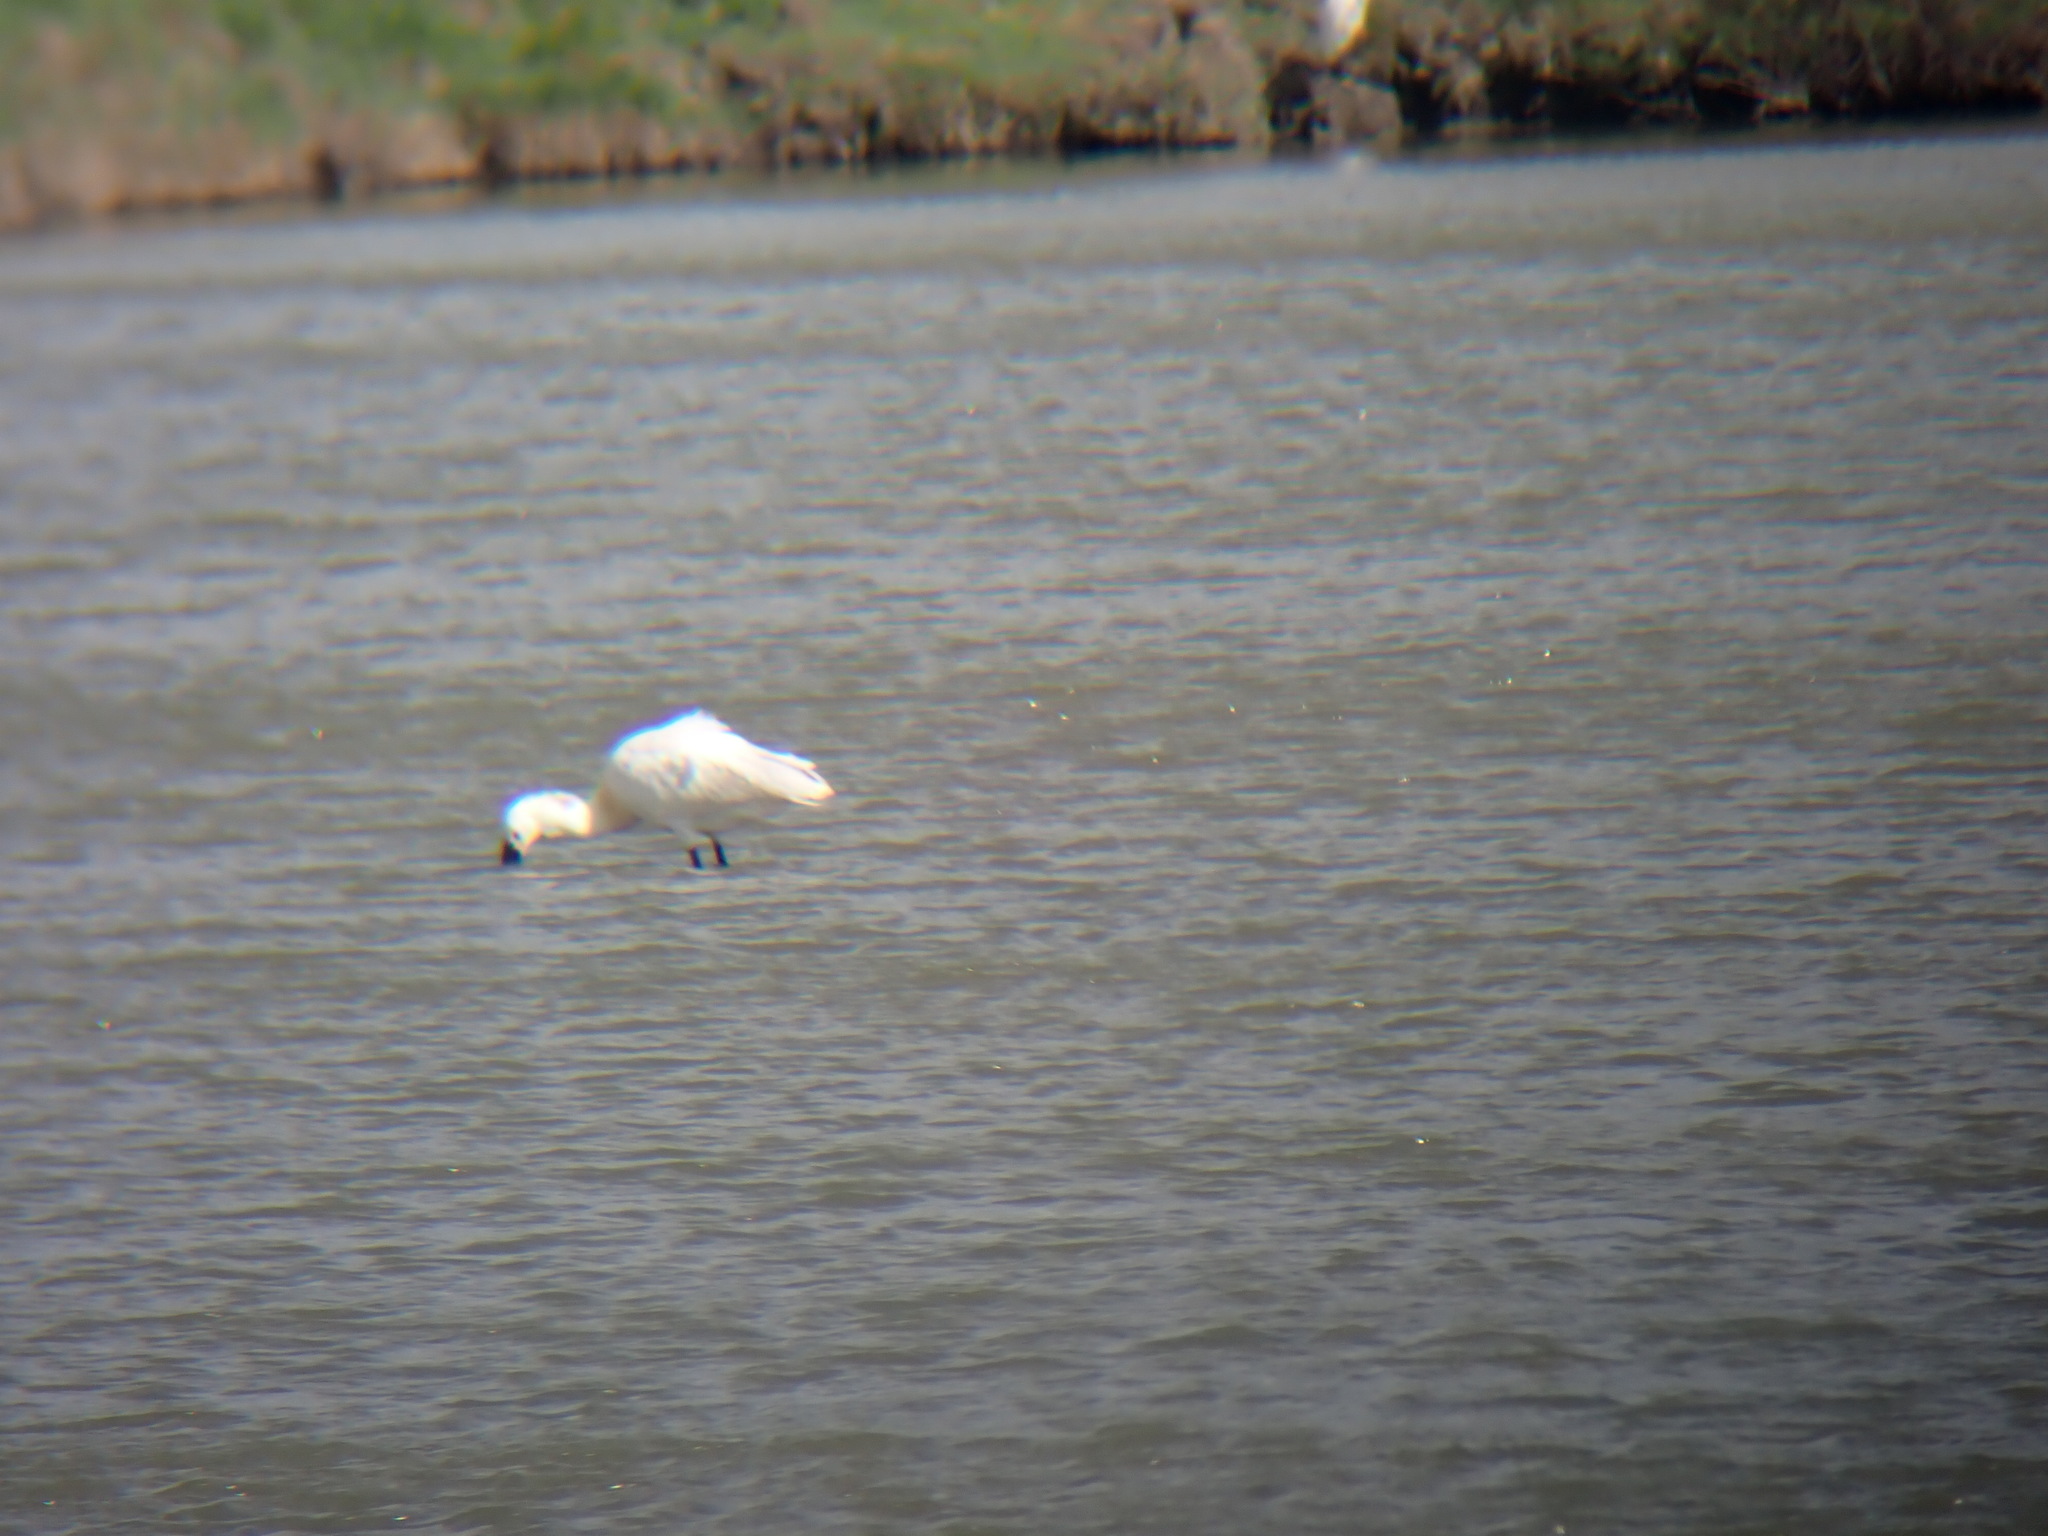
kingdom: Animalia
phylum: Chordata
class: Aves
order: Pelecaniformes
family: Threskiornithidae
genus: Platalea
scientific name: Platalea leucorodia
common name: Eurasian spoonbill
